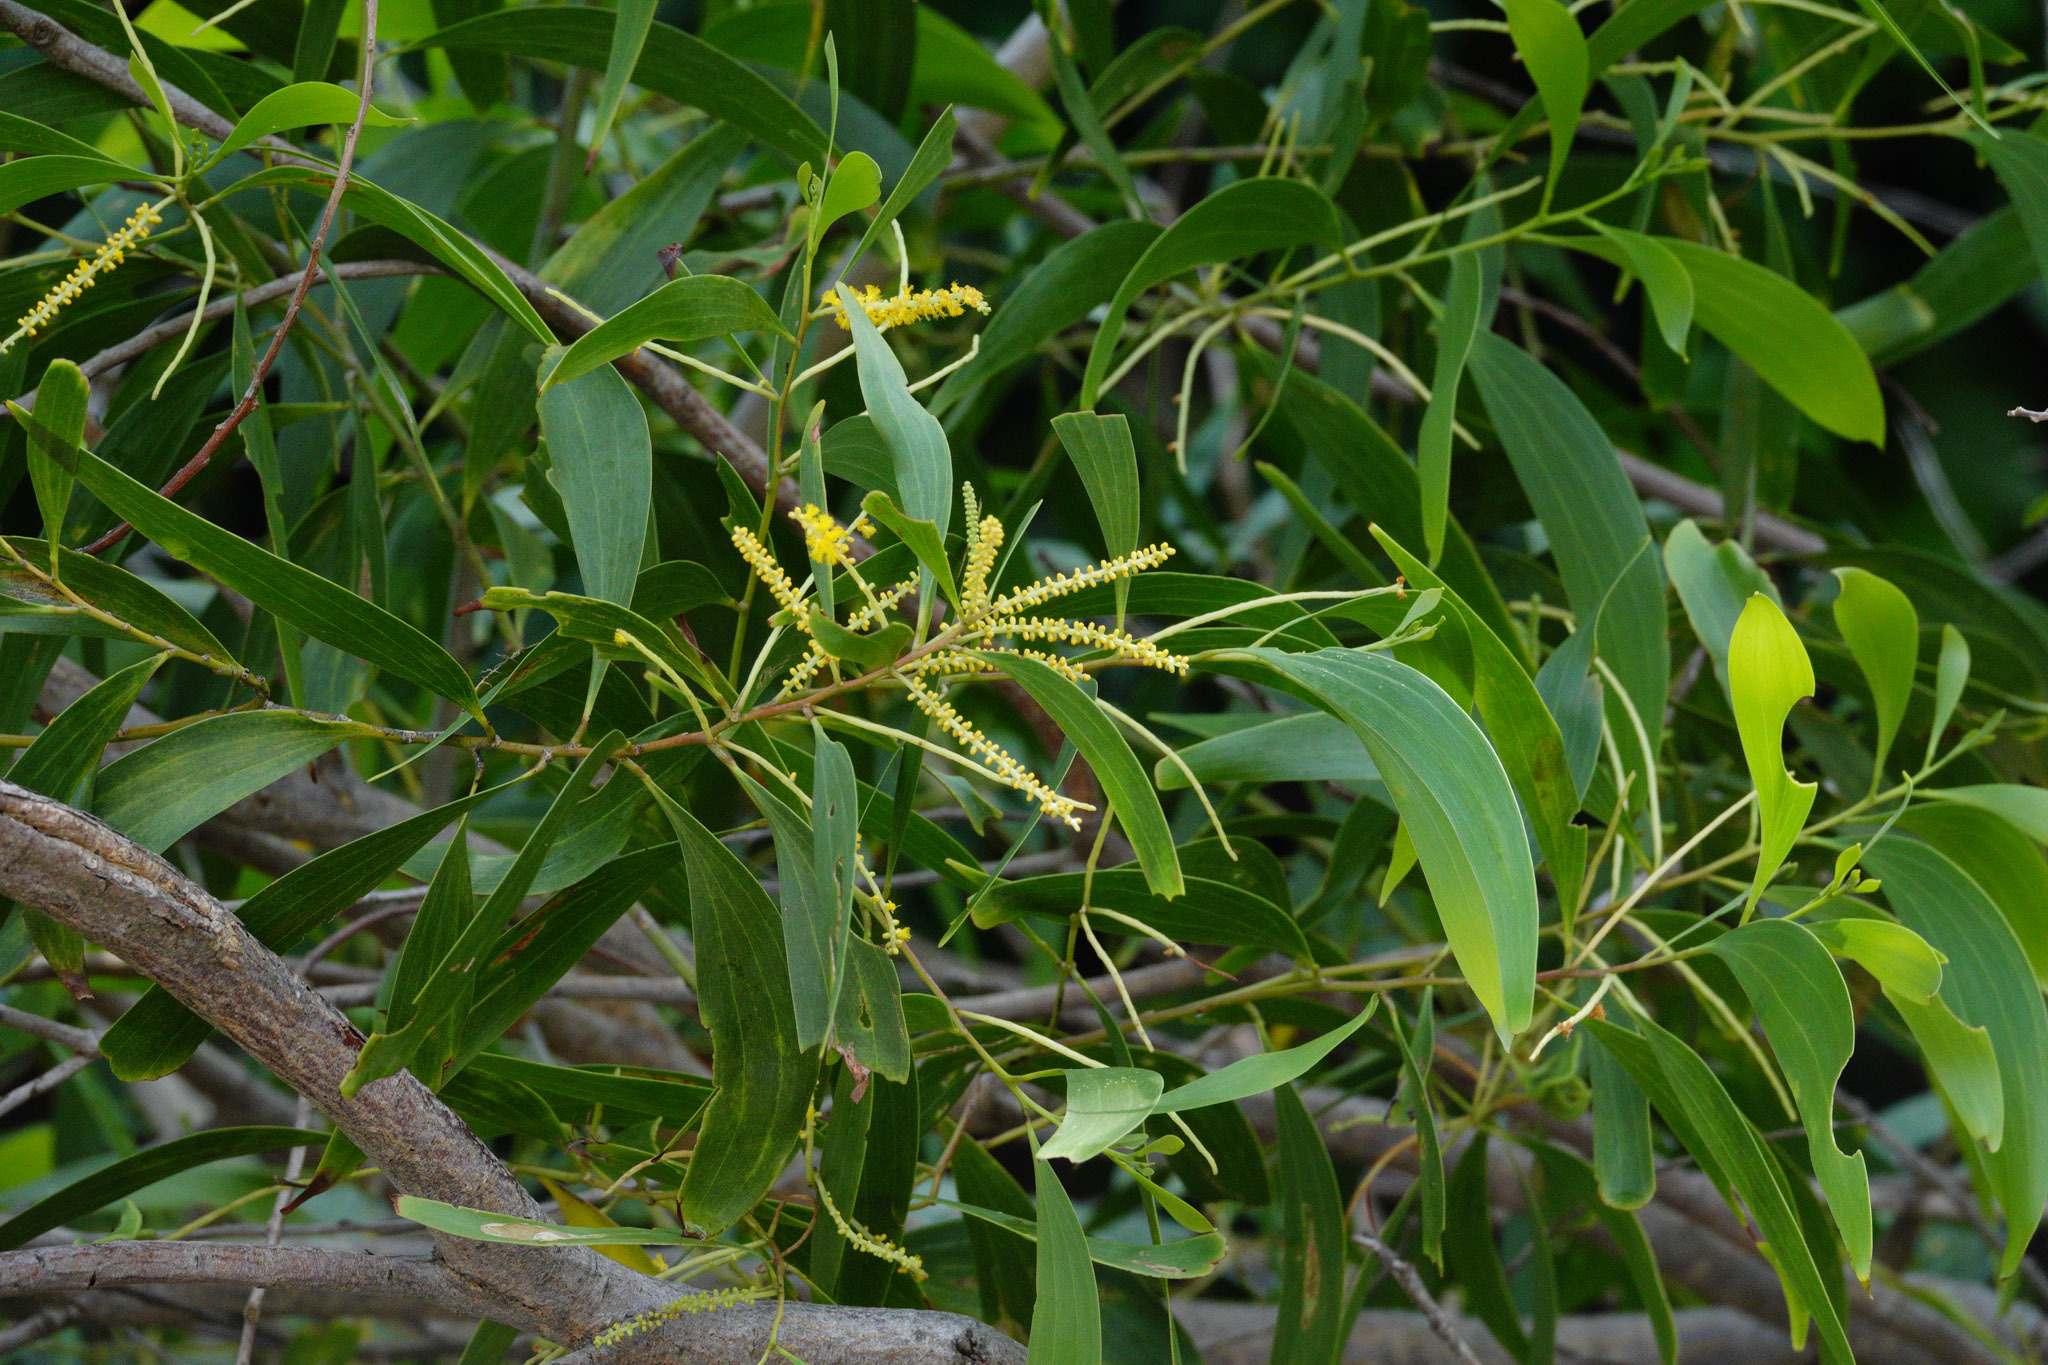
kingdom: Plantae
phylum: Tracheophyta
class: Magnoliopsida
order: Fabales
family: Fabaceae
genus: Acacia
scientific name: Acacia auriculiformis
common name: Earleaf acacia
